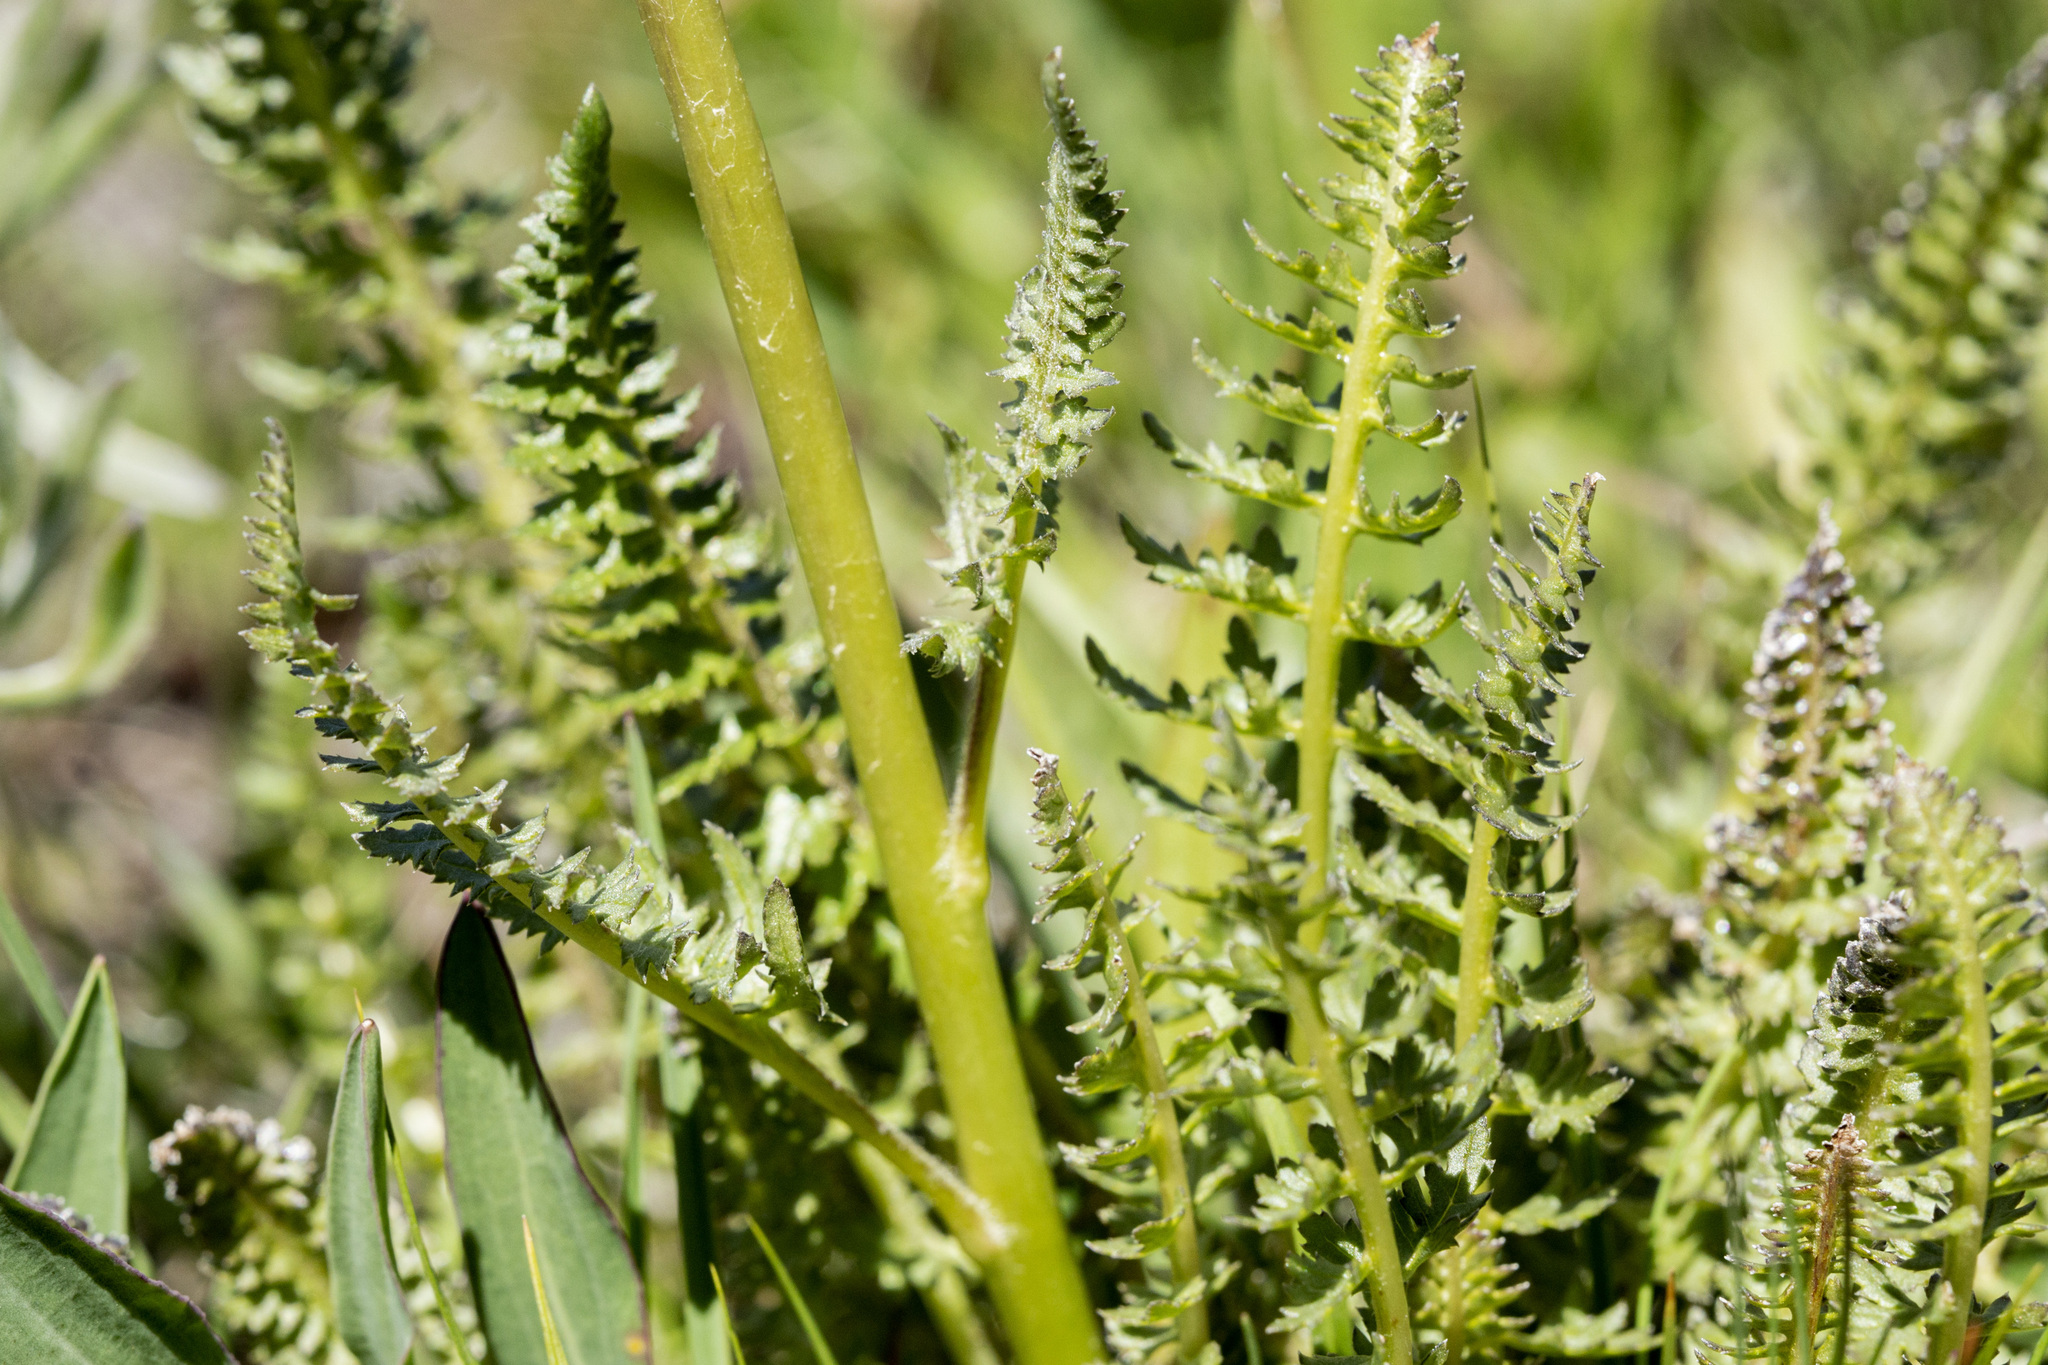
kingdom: Plantae
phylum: Tracheophyta
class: Magnoliopsida
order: Lamiales
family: Orobanchaceae
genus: Pedicularis
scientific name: Pedicularis cystopteridifolia
